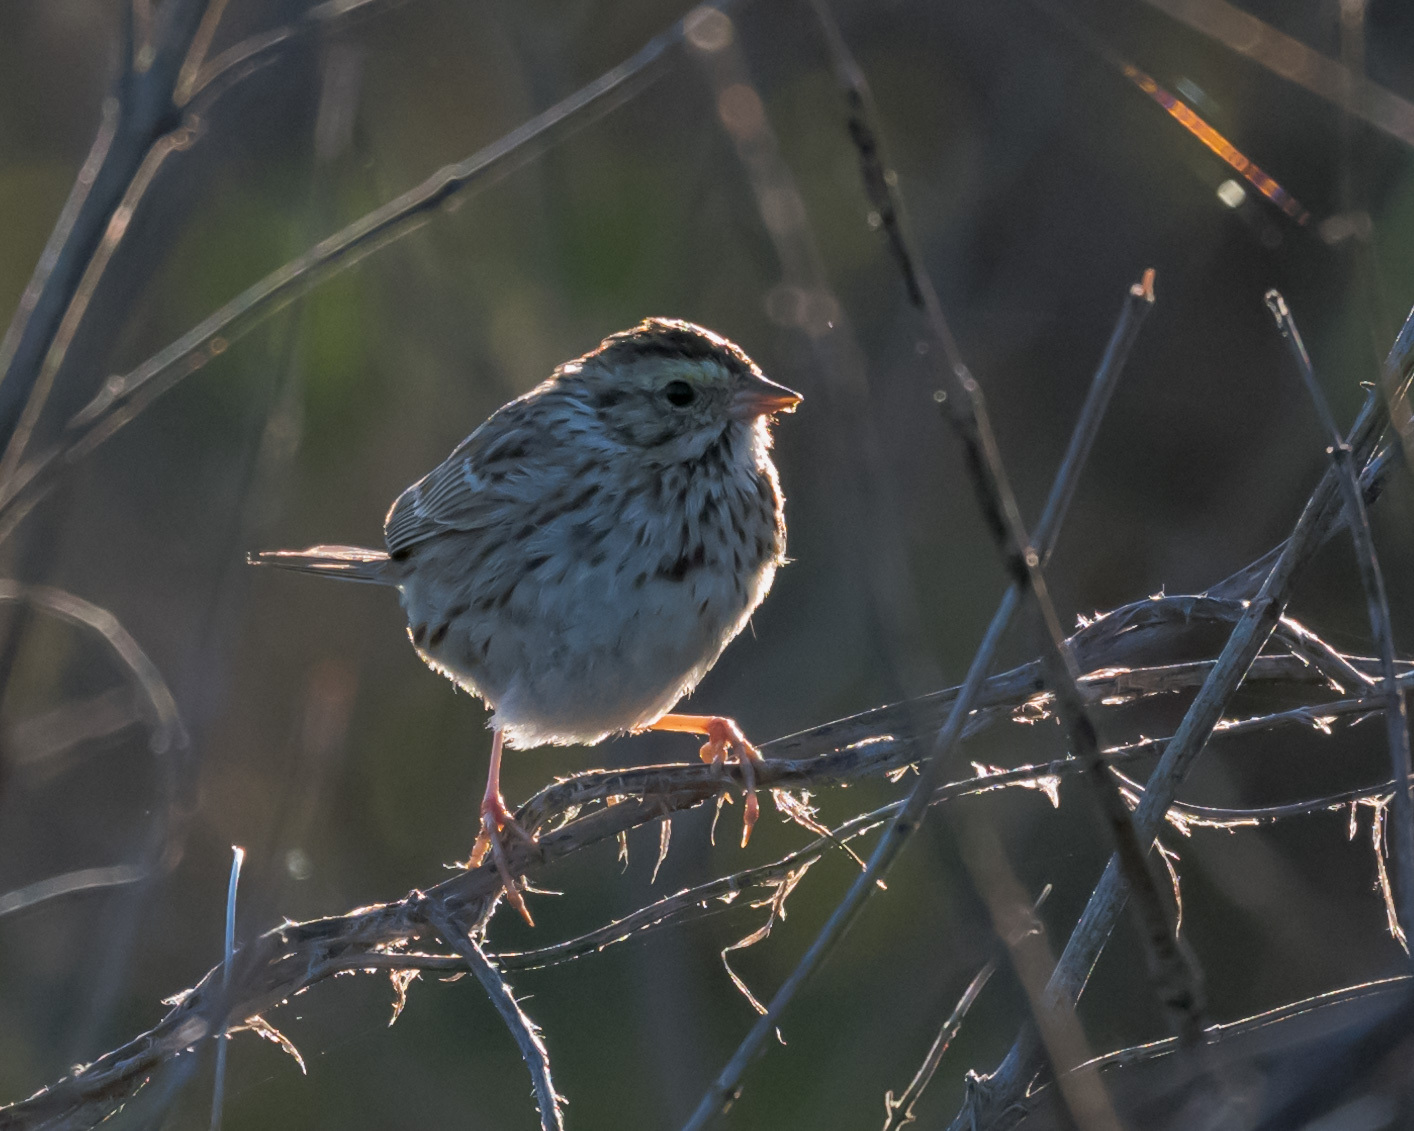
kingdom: Animalia
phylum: Chordata
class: Aves
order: Passeriformes
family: Passerellidae
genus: Passerculus
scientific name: Passerculus sandwichensis
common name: Savannah sparrow
